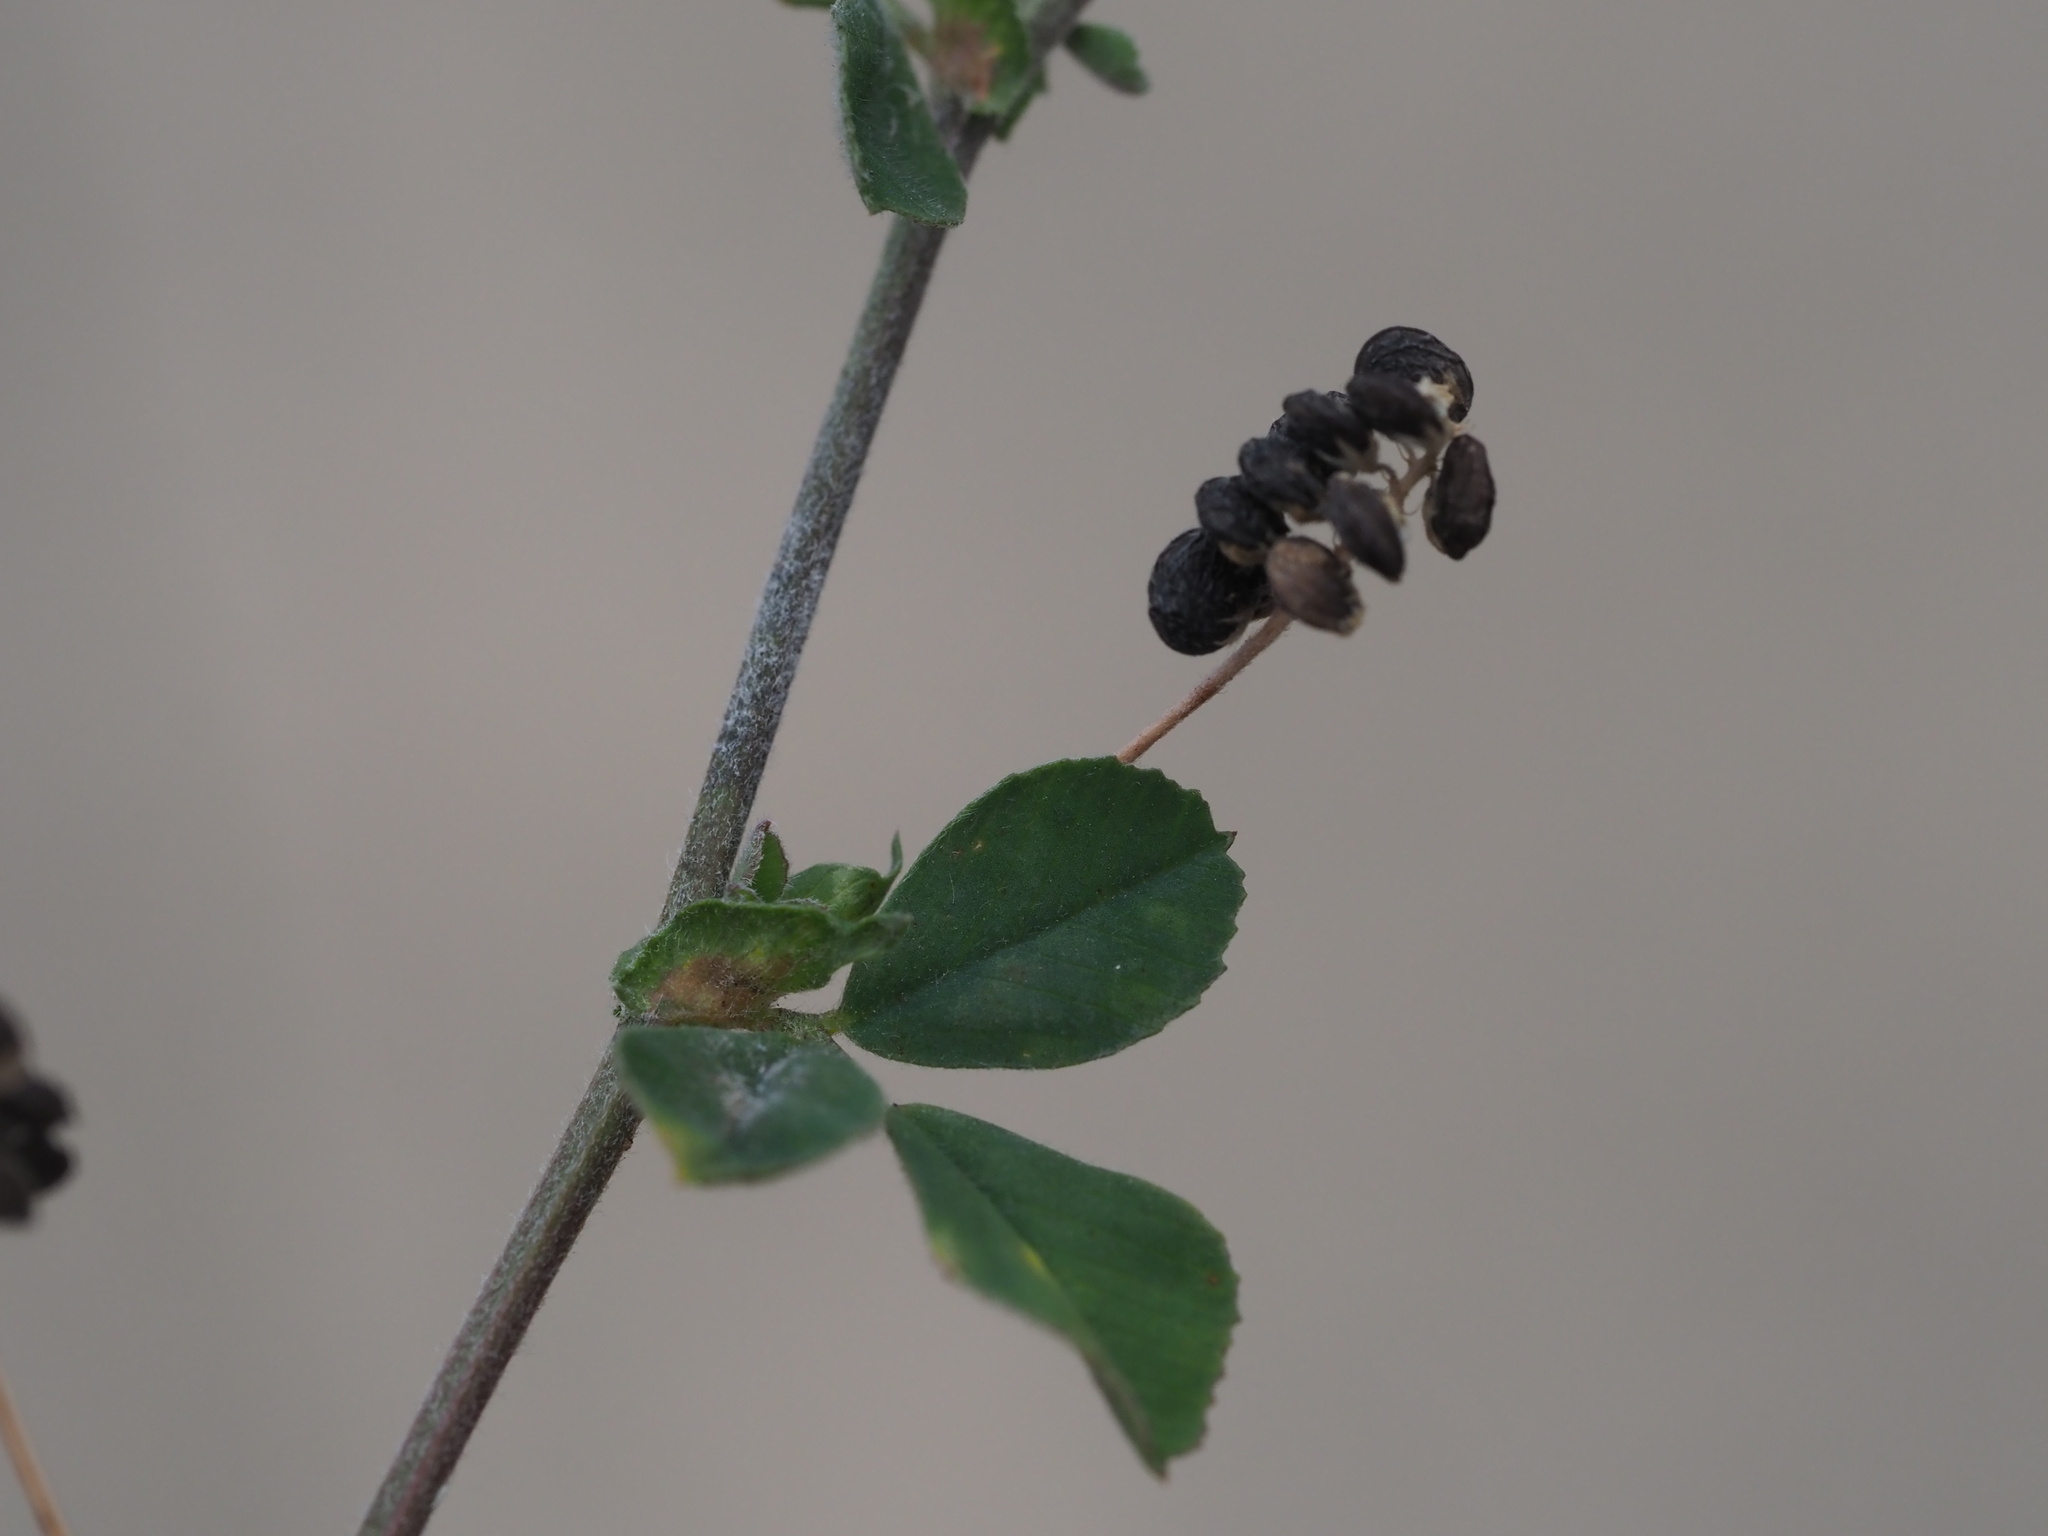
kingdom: Plantae
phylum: Tracheophyta
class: Magnoliopsida
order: Fabales
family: Fabaceae
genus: Medicago
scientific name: Medicago lupulina
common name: Black medick
